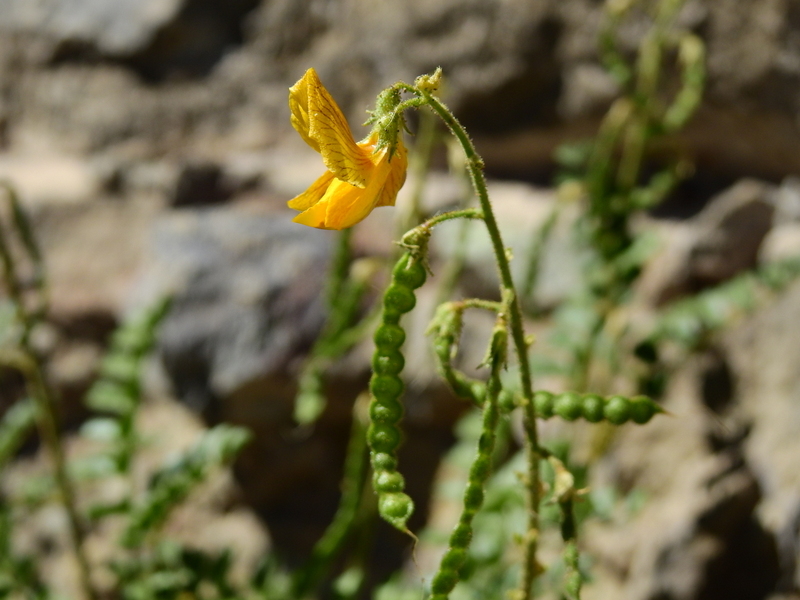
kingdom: Plantae
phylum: Tracheophyta
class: Magnoliopsida
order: Fabales
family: Fabaceae
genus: Adesmia
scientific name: Adesmia grandiflora
